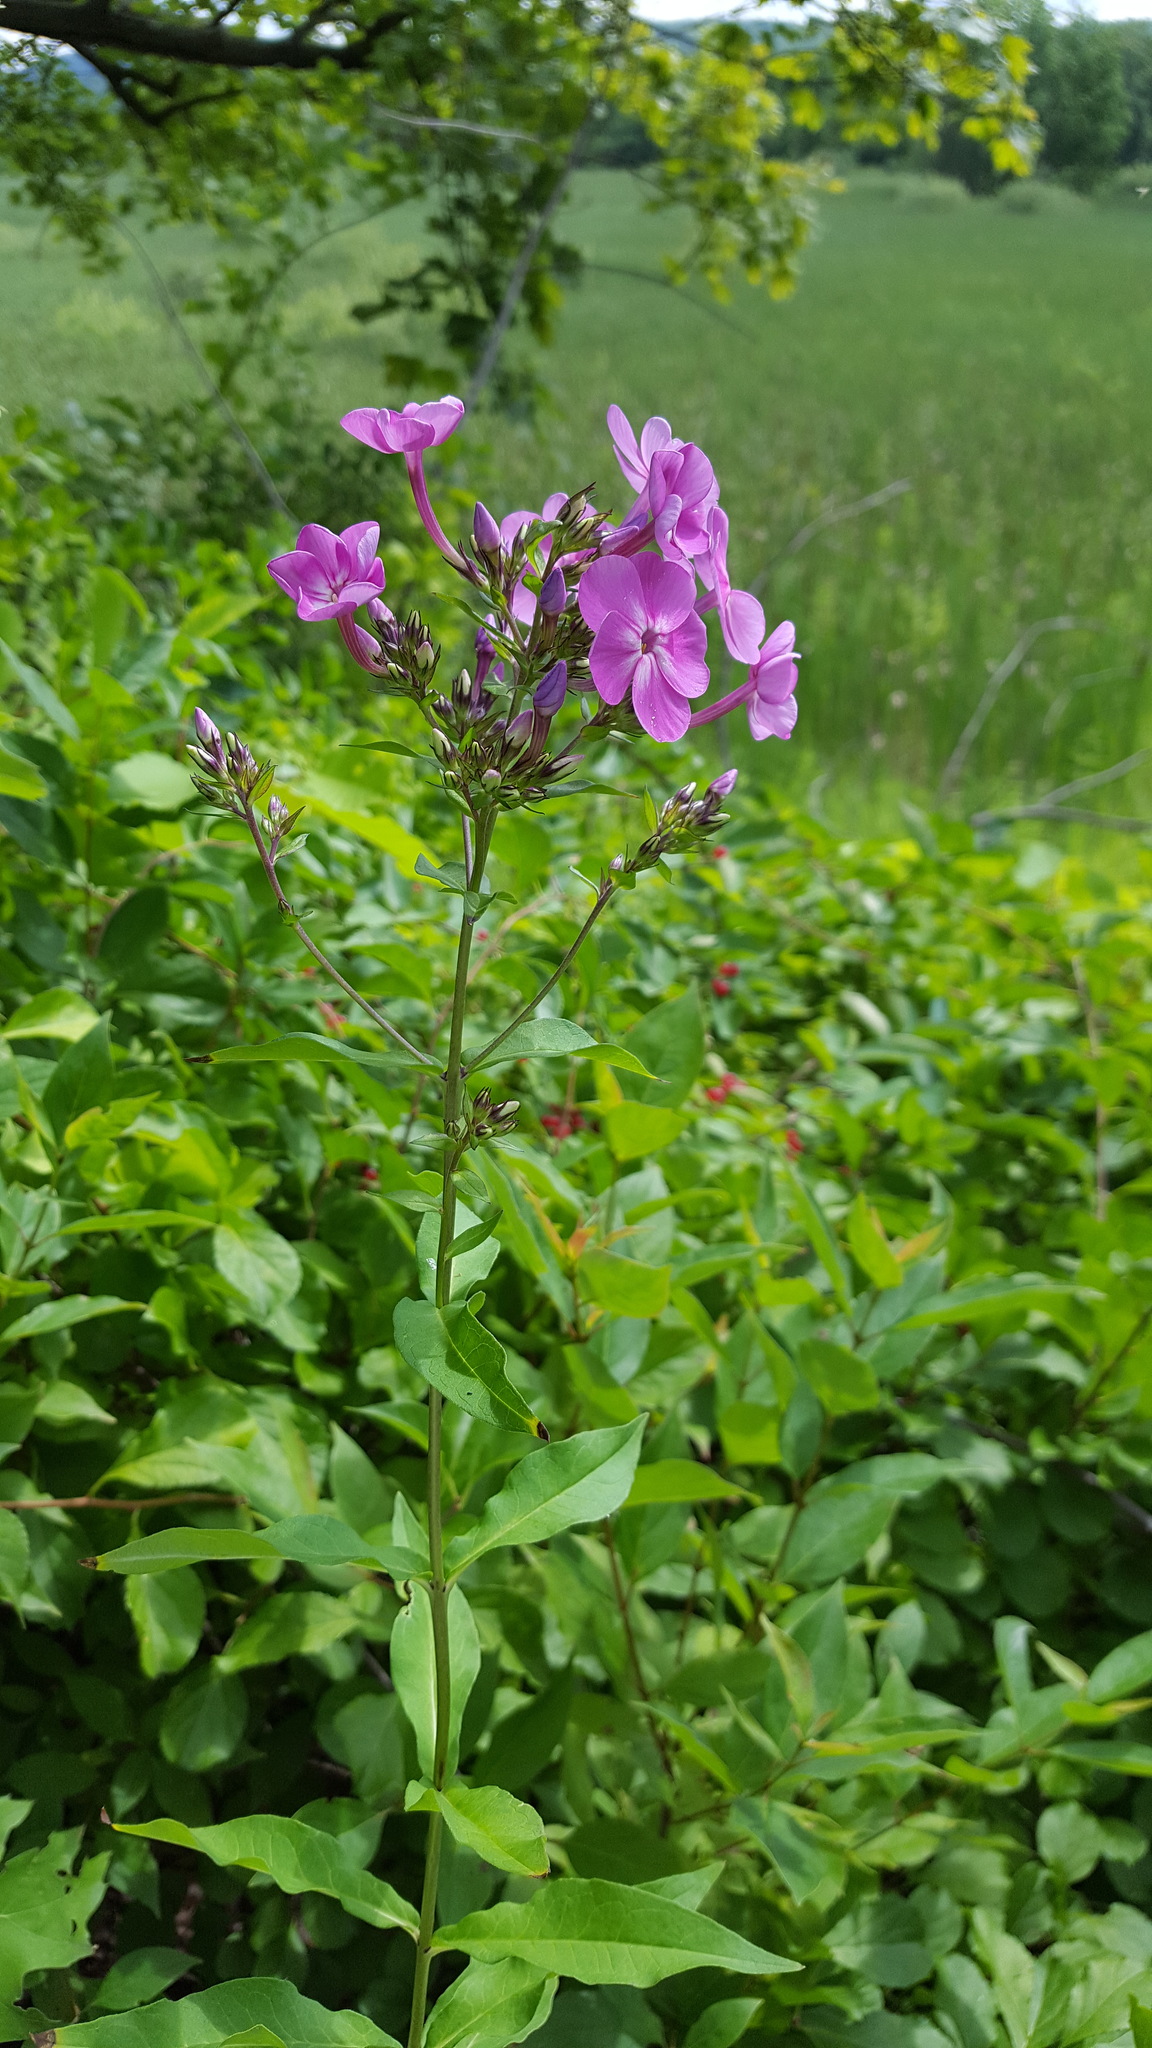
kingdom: Plantae
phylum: Tracheophyta
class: Magnoliopsida
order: Ericales
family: Polemoniaceae
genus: Phlox
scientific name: Phlox paniculata
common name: Fall phlox
